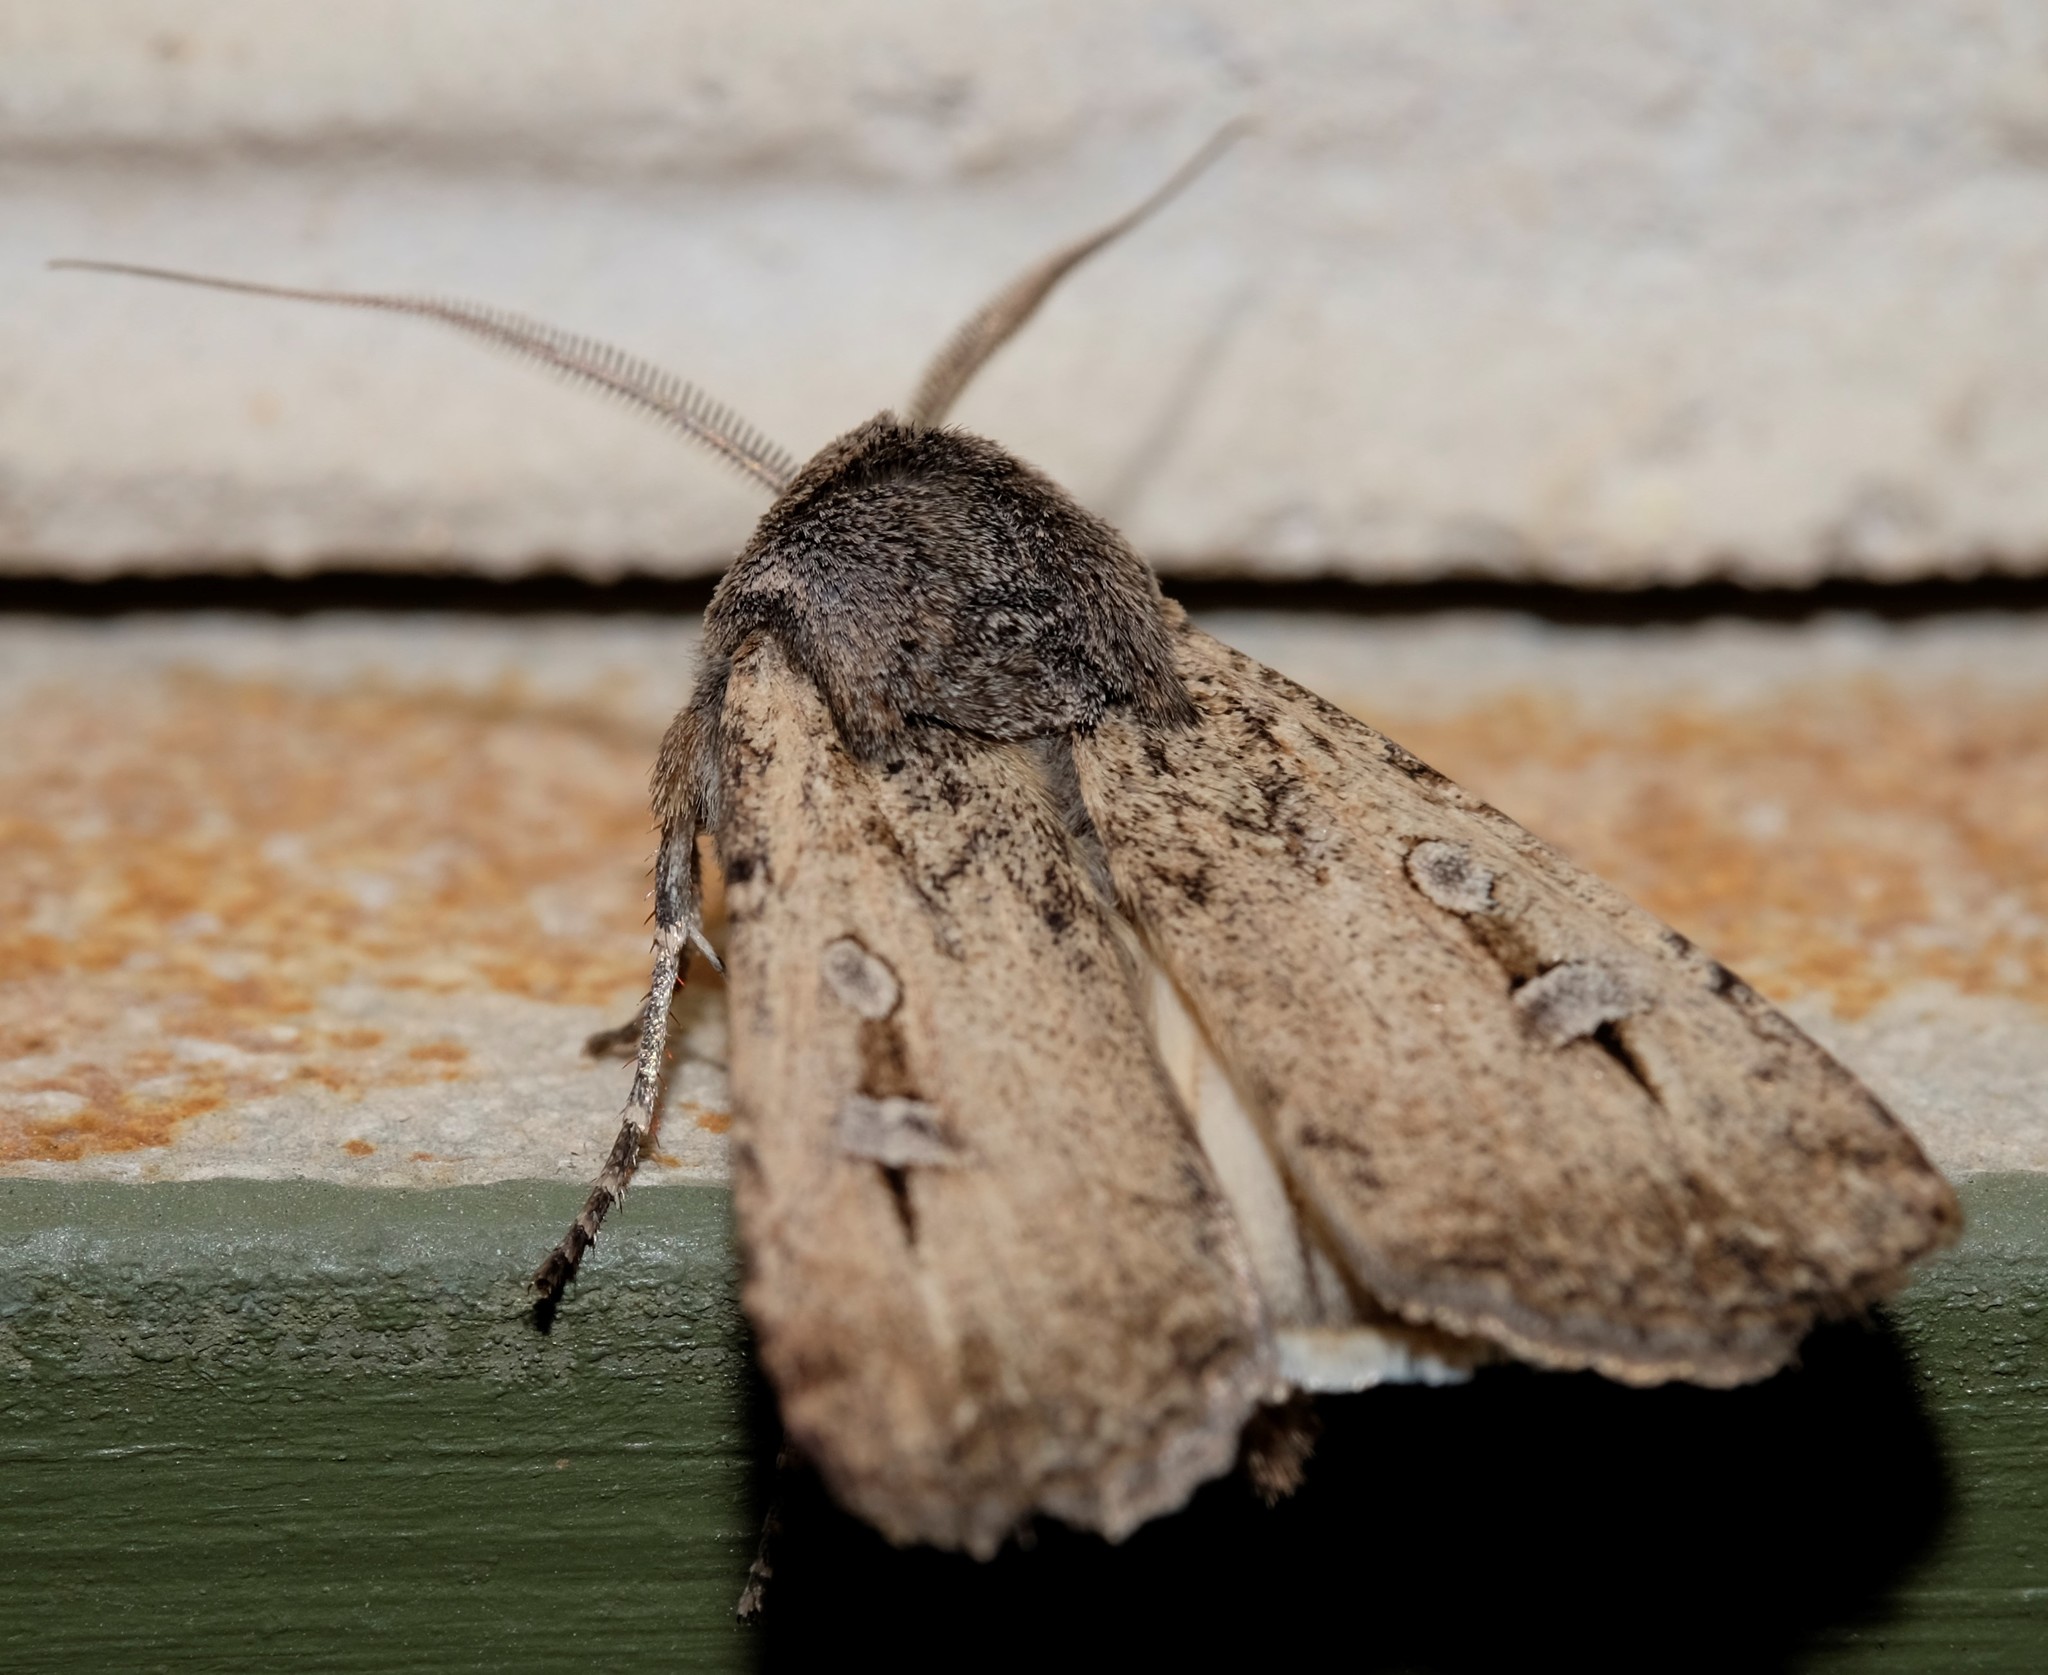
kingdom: Animalia
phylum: Arthropoda
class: Insecta
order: Lepidoptera
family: Noctuidae
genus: Agrotis
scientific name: Agrotis infusa
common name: Bogong moth
